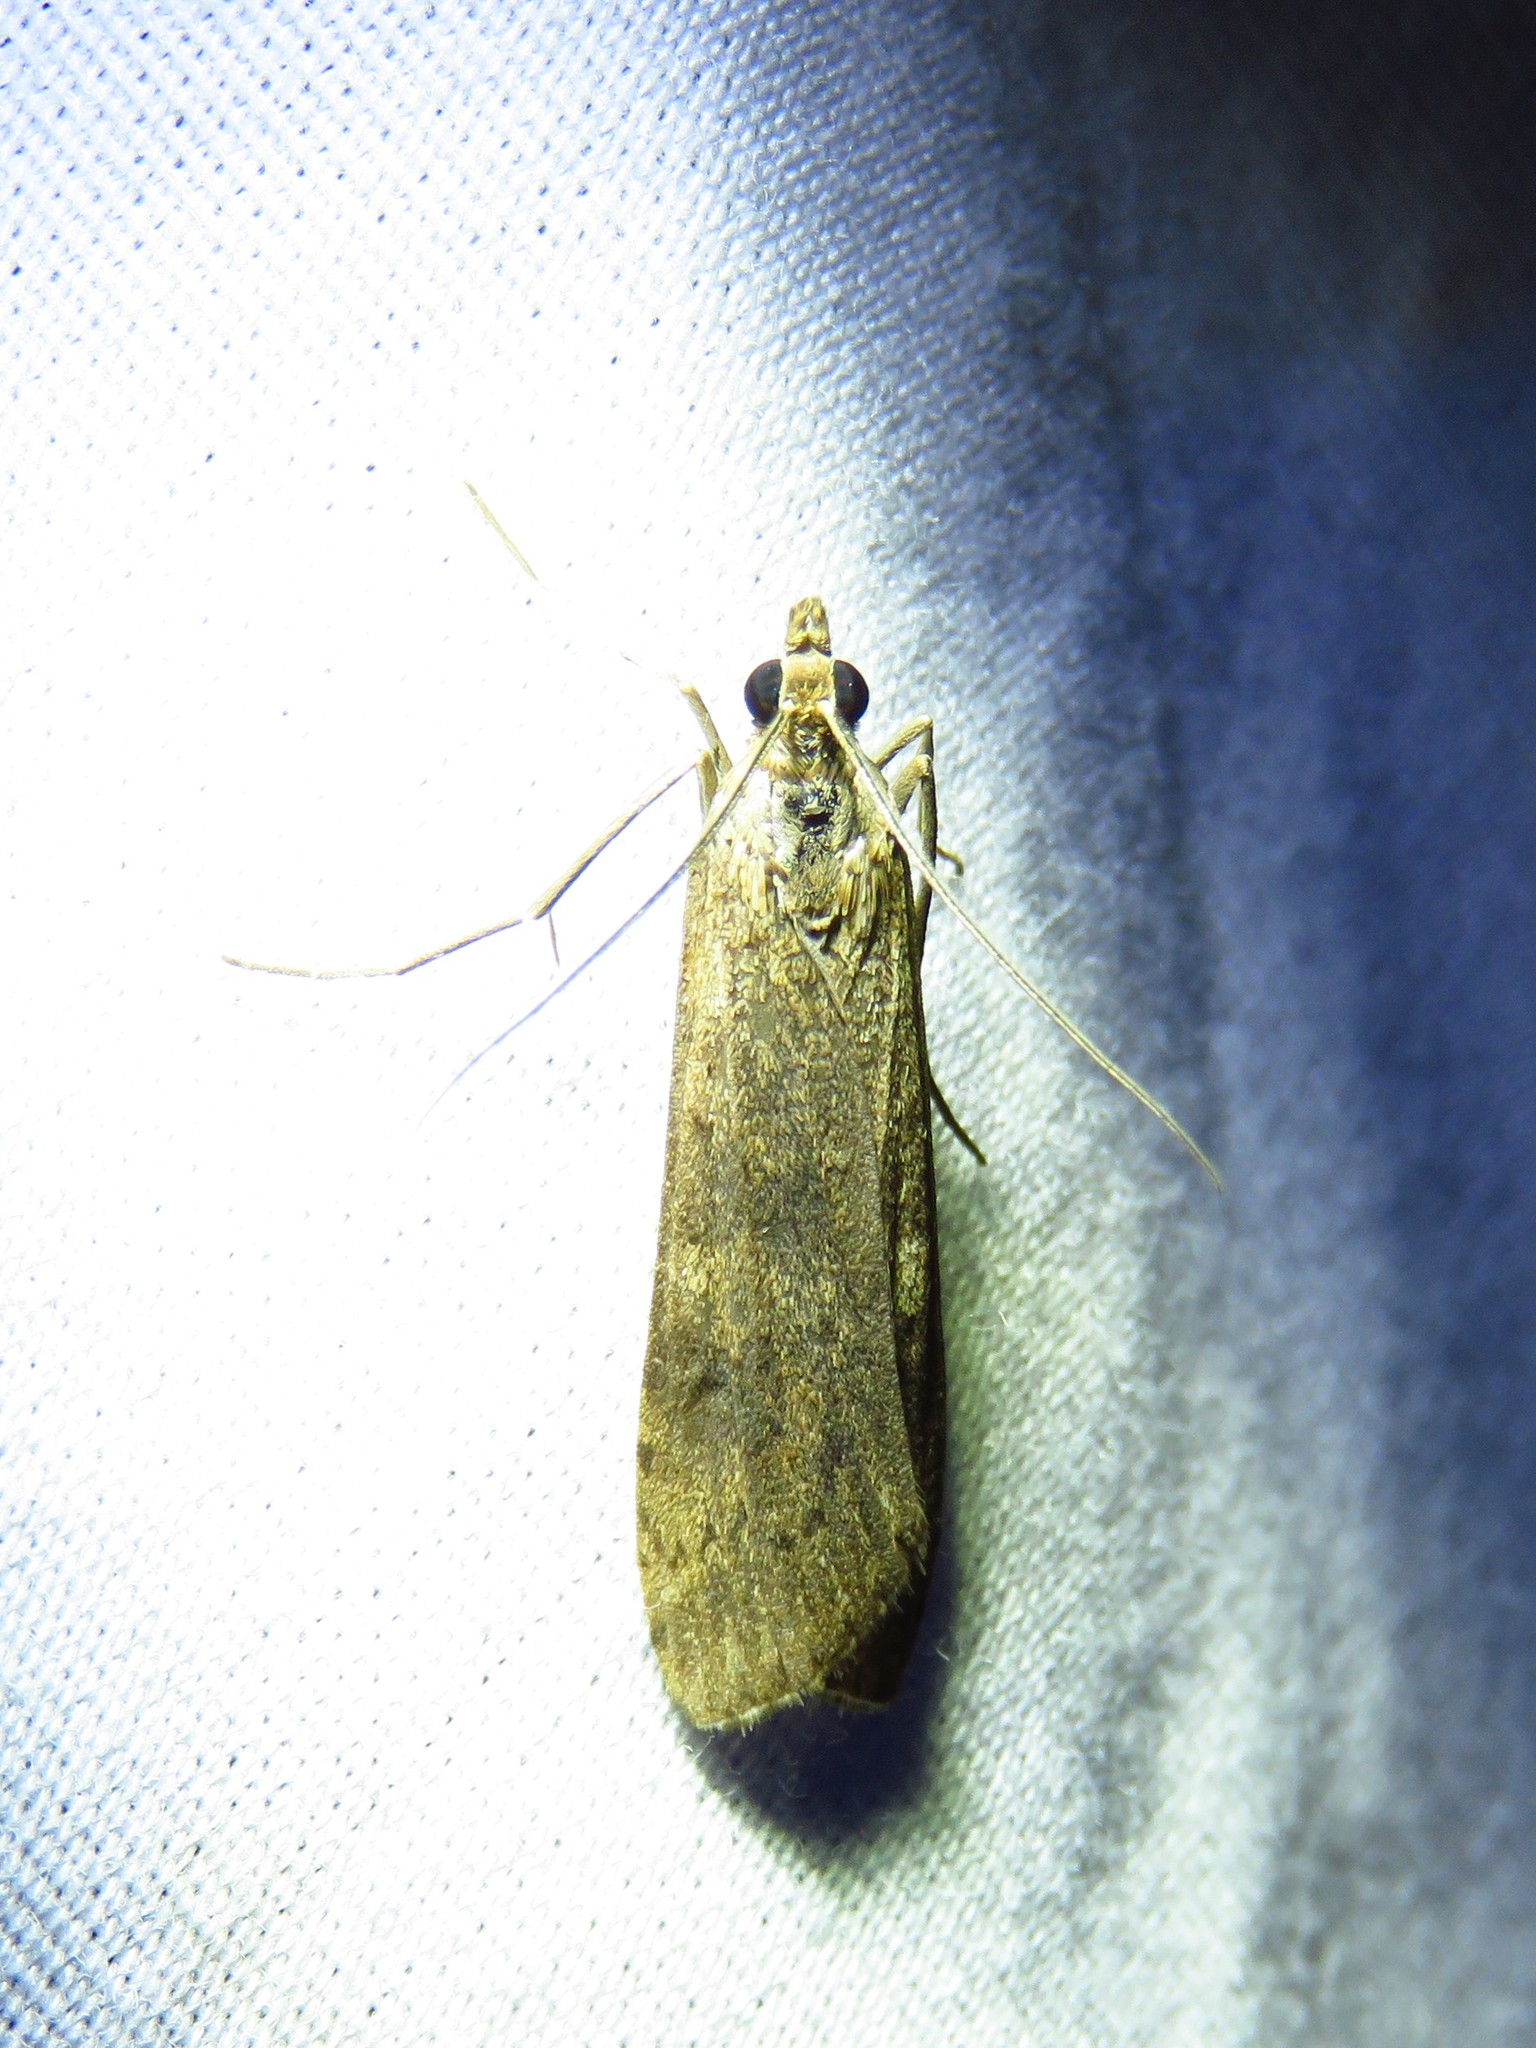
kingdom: Animalia
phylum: Arthropoda
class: Insecta
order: Lepidoptera
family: Crambidae
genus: Nomophila
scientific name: Nomophila nearctica
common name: American rush veneer
